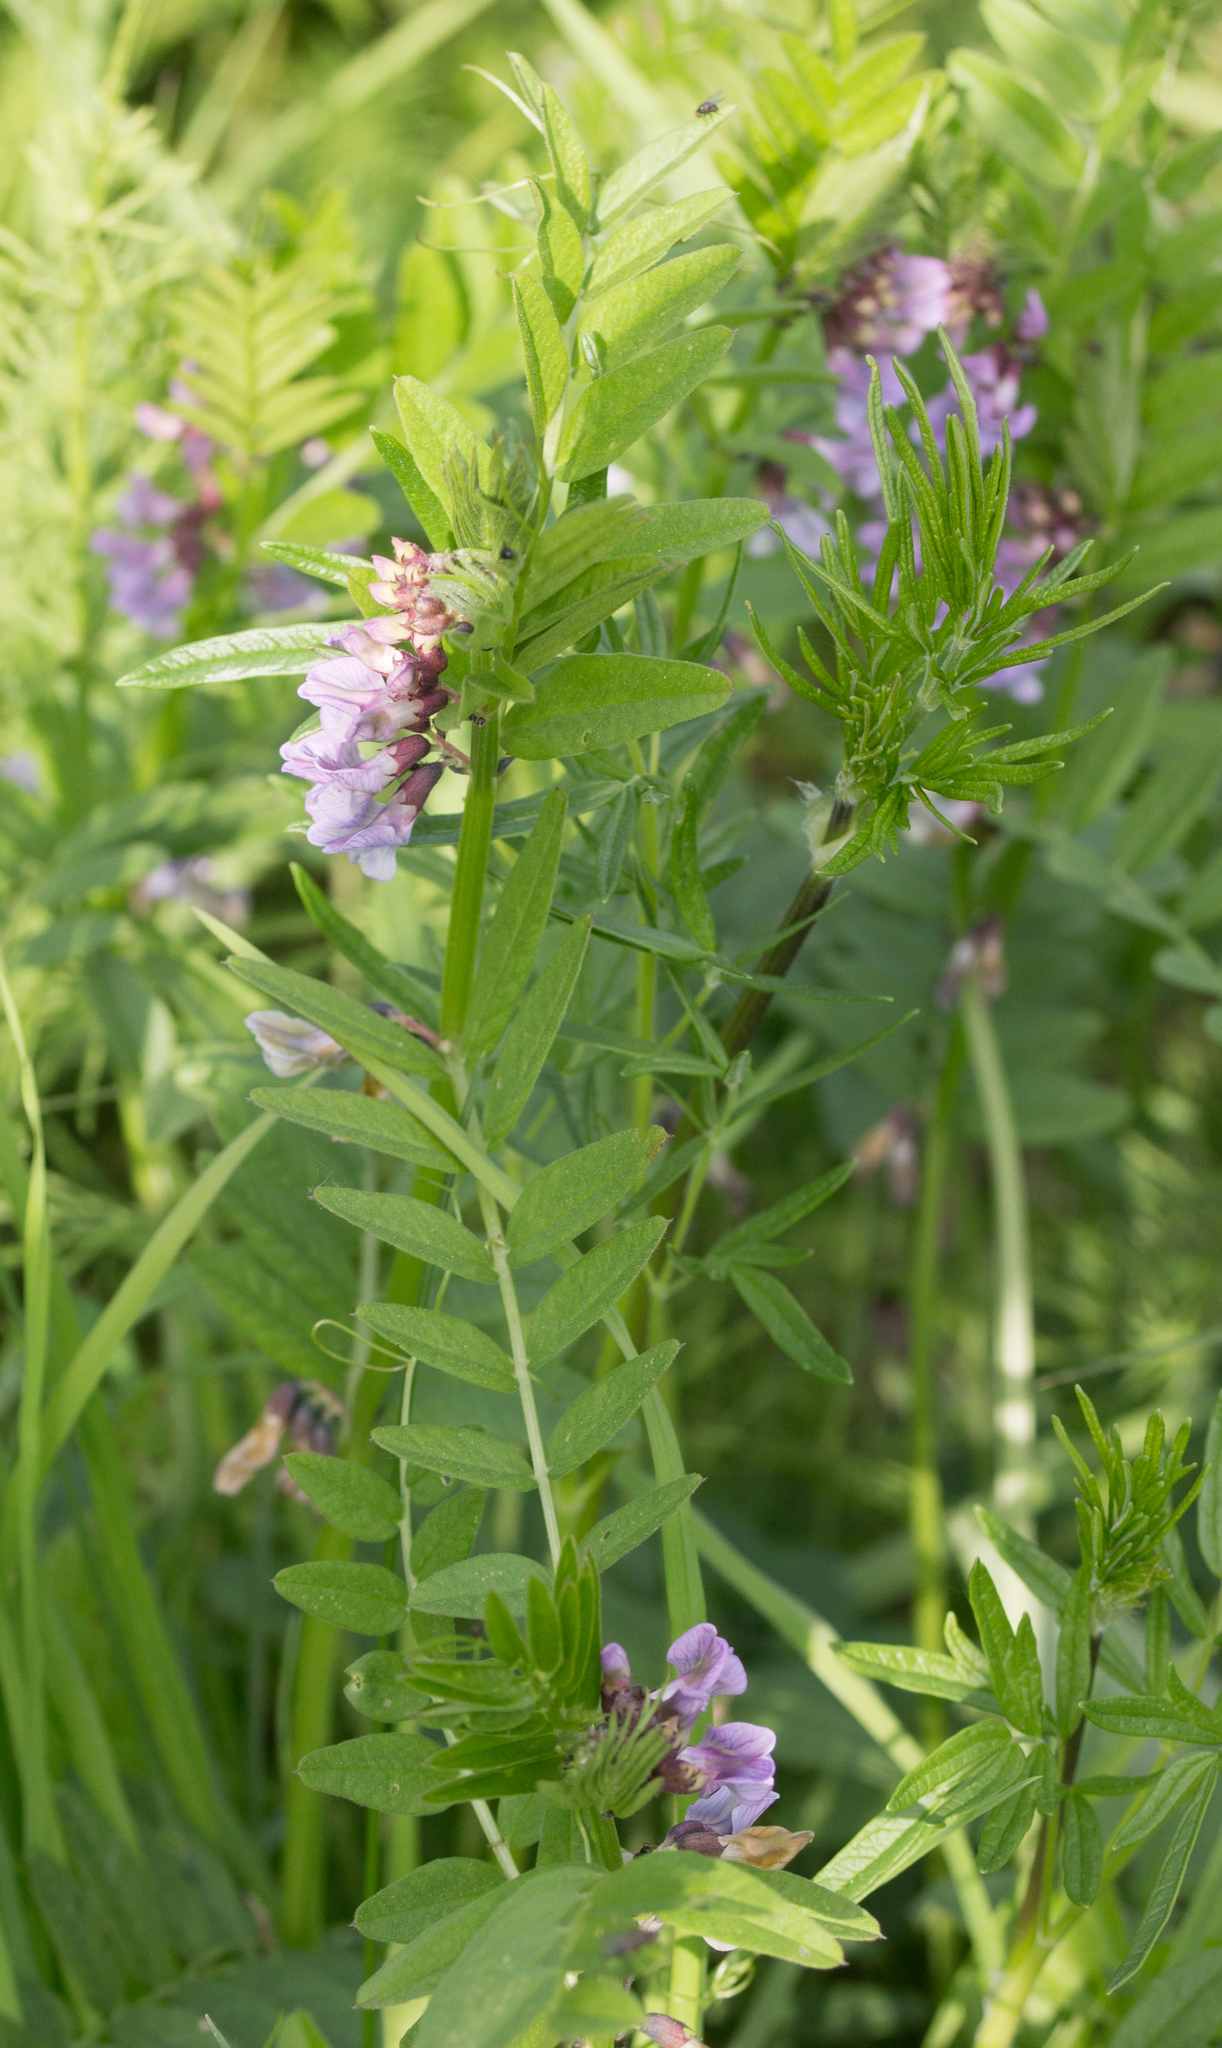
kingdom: Plantae
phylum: Tracheophyta
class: Magnoliopsida
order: Fabales
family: Fabaceae
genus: Vicia
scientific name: Vicia sepium
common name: Bush vetch
